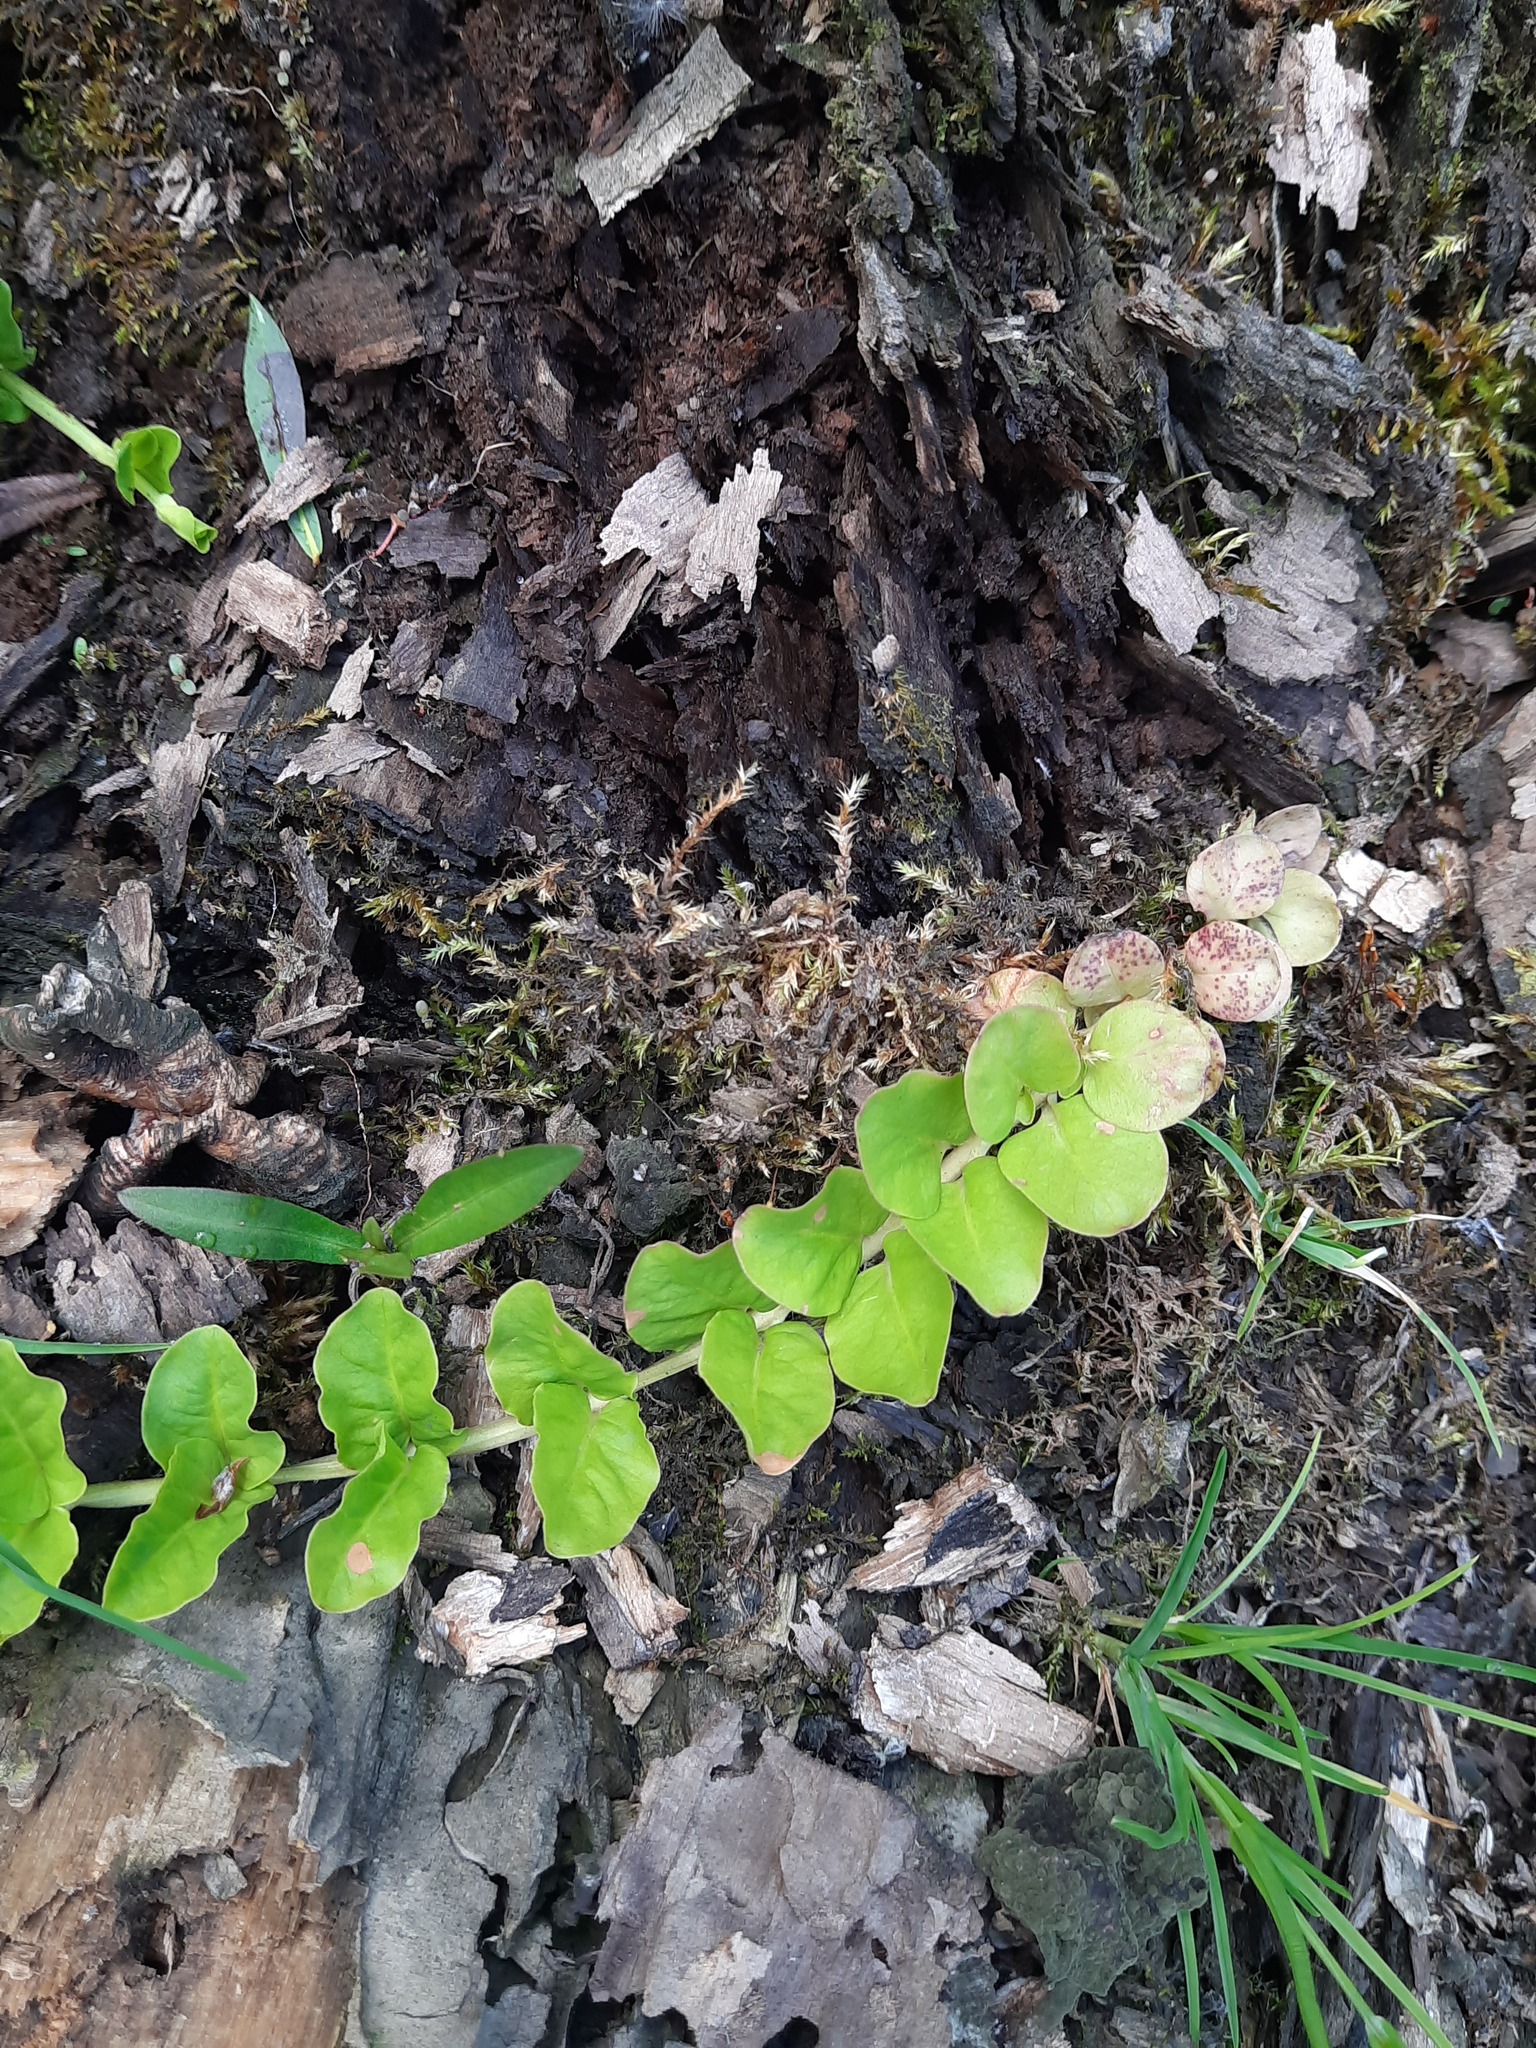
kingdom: Plantae
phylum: Tracheophyta
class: Magnoliopsida
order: Ericales
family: Primulaceae
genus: Lysimachia
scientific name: Lysimachia nummularia
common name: Moneywort
